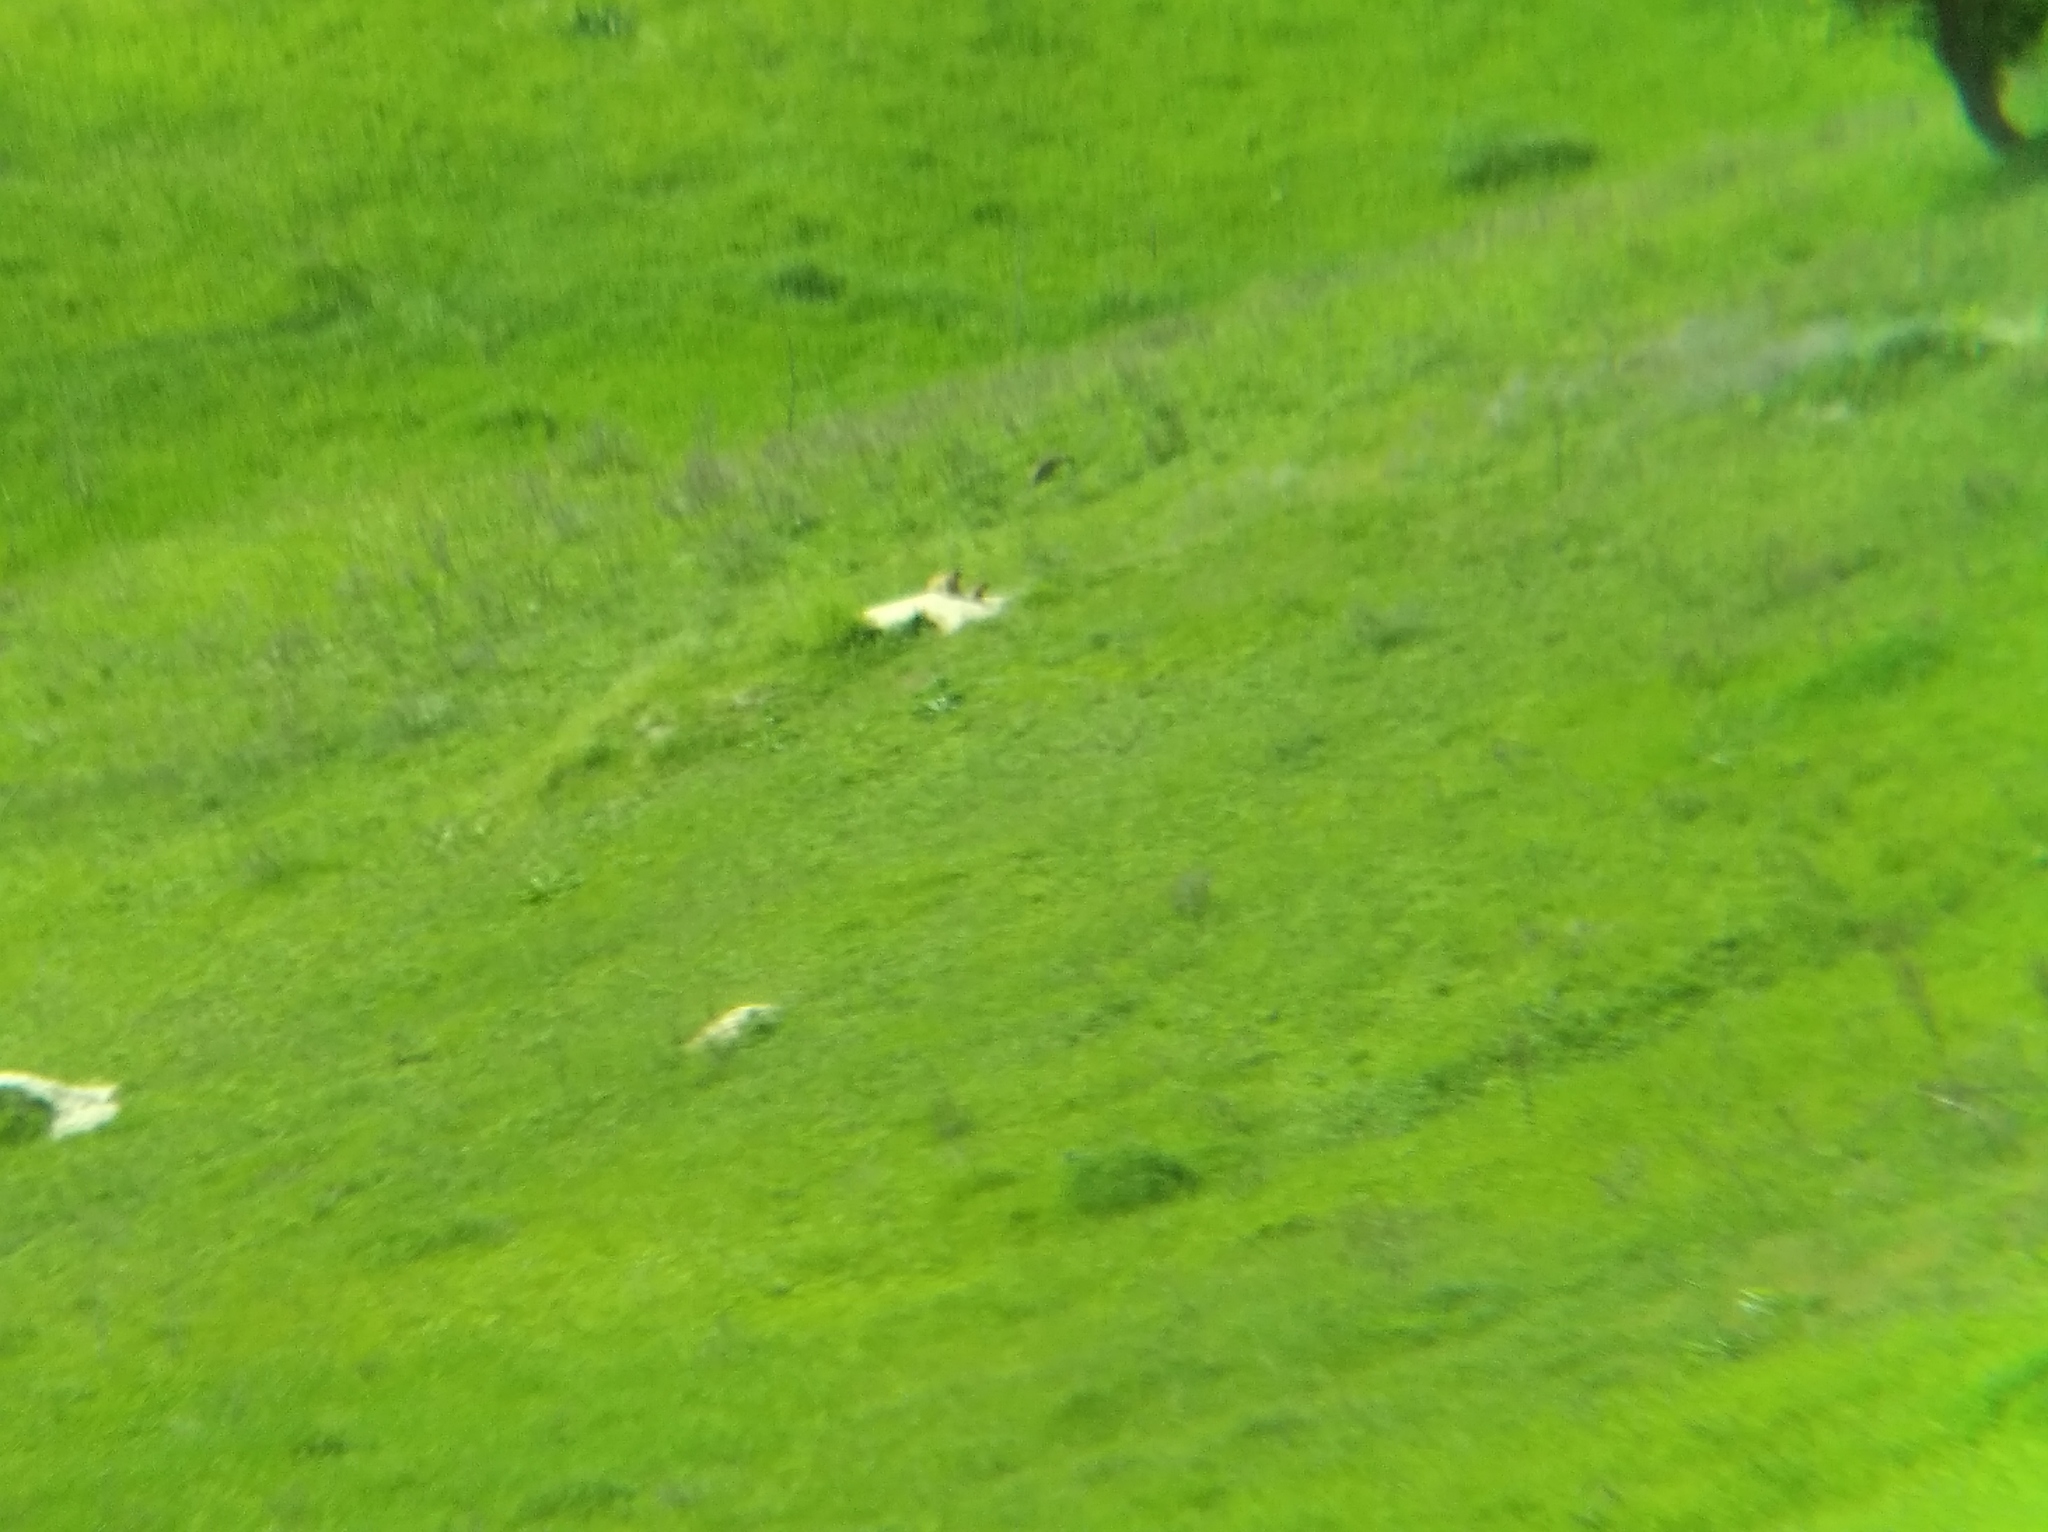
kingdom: Animalia
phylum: Chordata
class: Mammalia
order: Rodentia
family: Sciuridae
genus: Marmota
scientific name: Marmota bobak
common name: Bobak marmot
